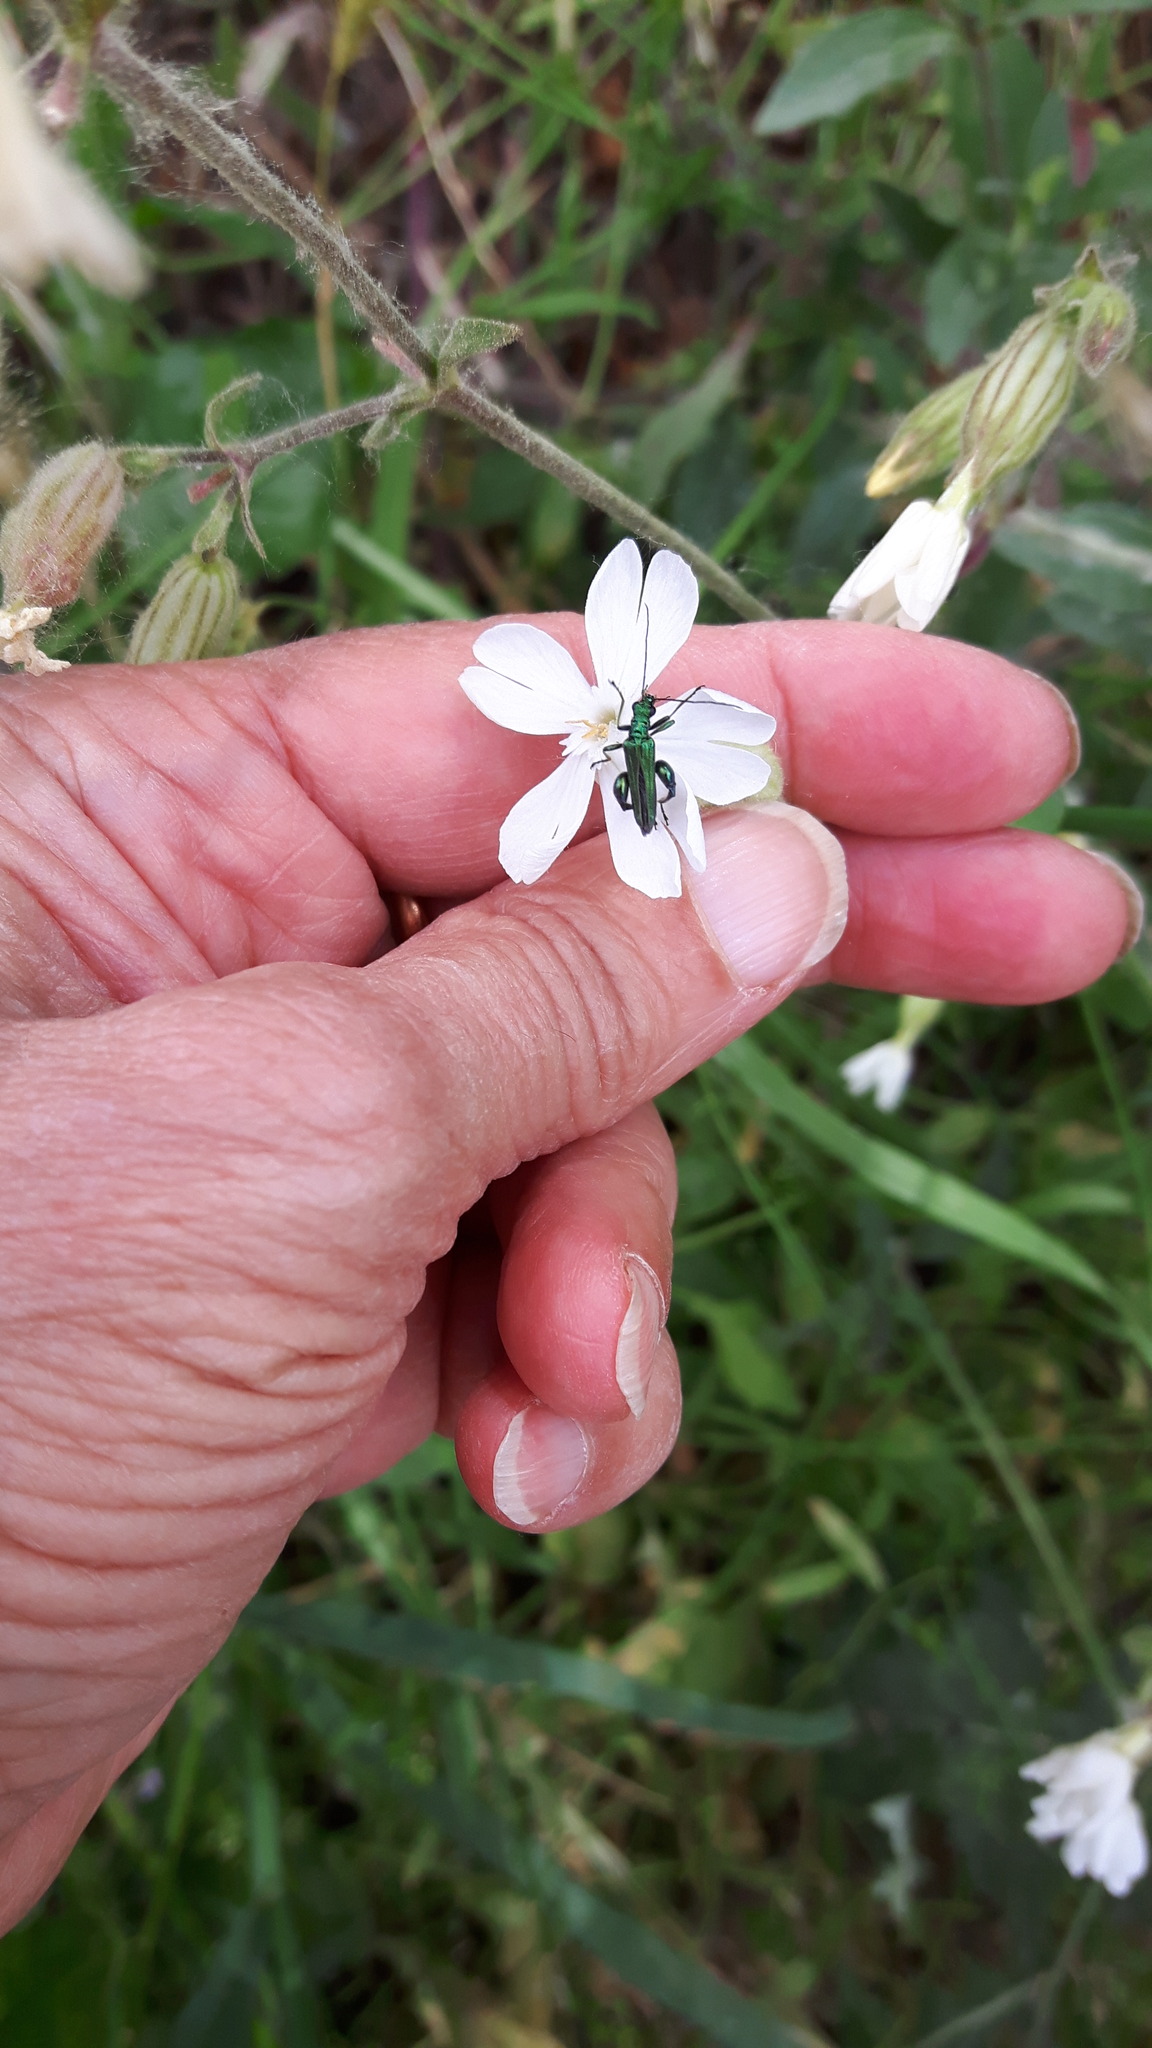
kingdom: Animalia
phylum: Arthropoda
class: Insecta
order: Coleoptera
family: Oedemeridae
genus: Oedemera
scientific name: Oedemera nobilis
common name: Swollen-thighed beetle
